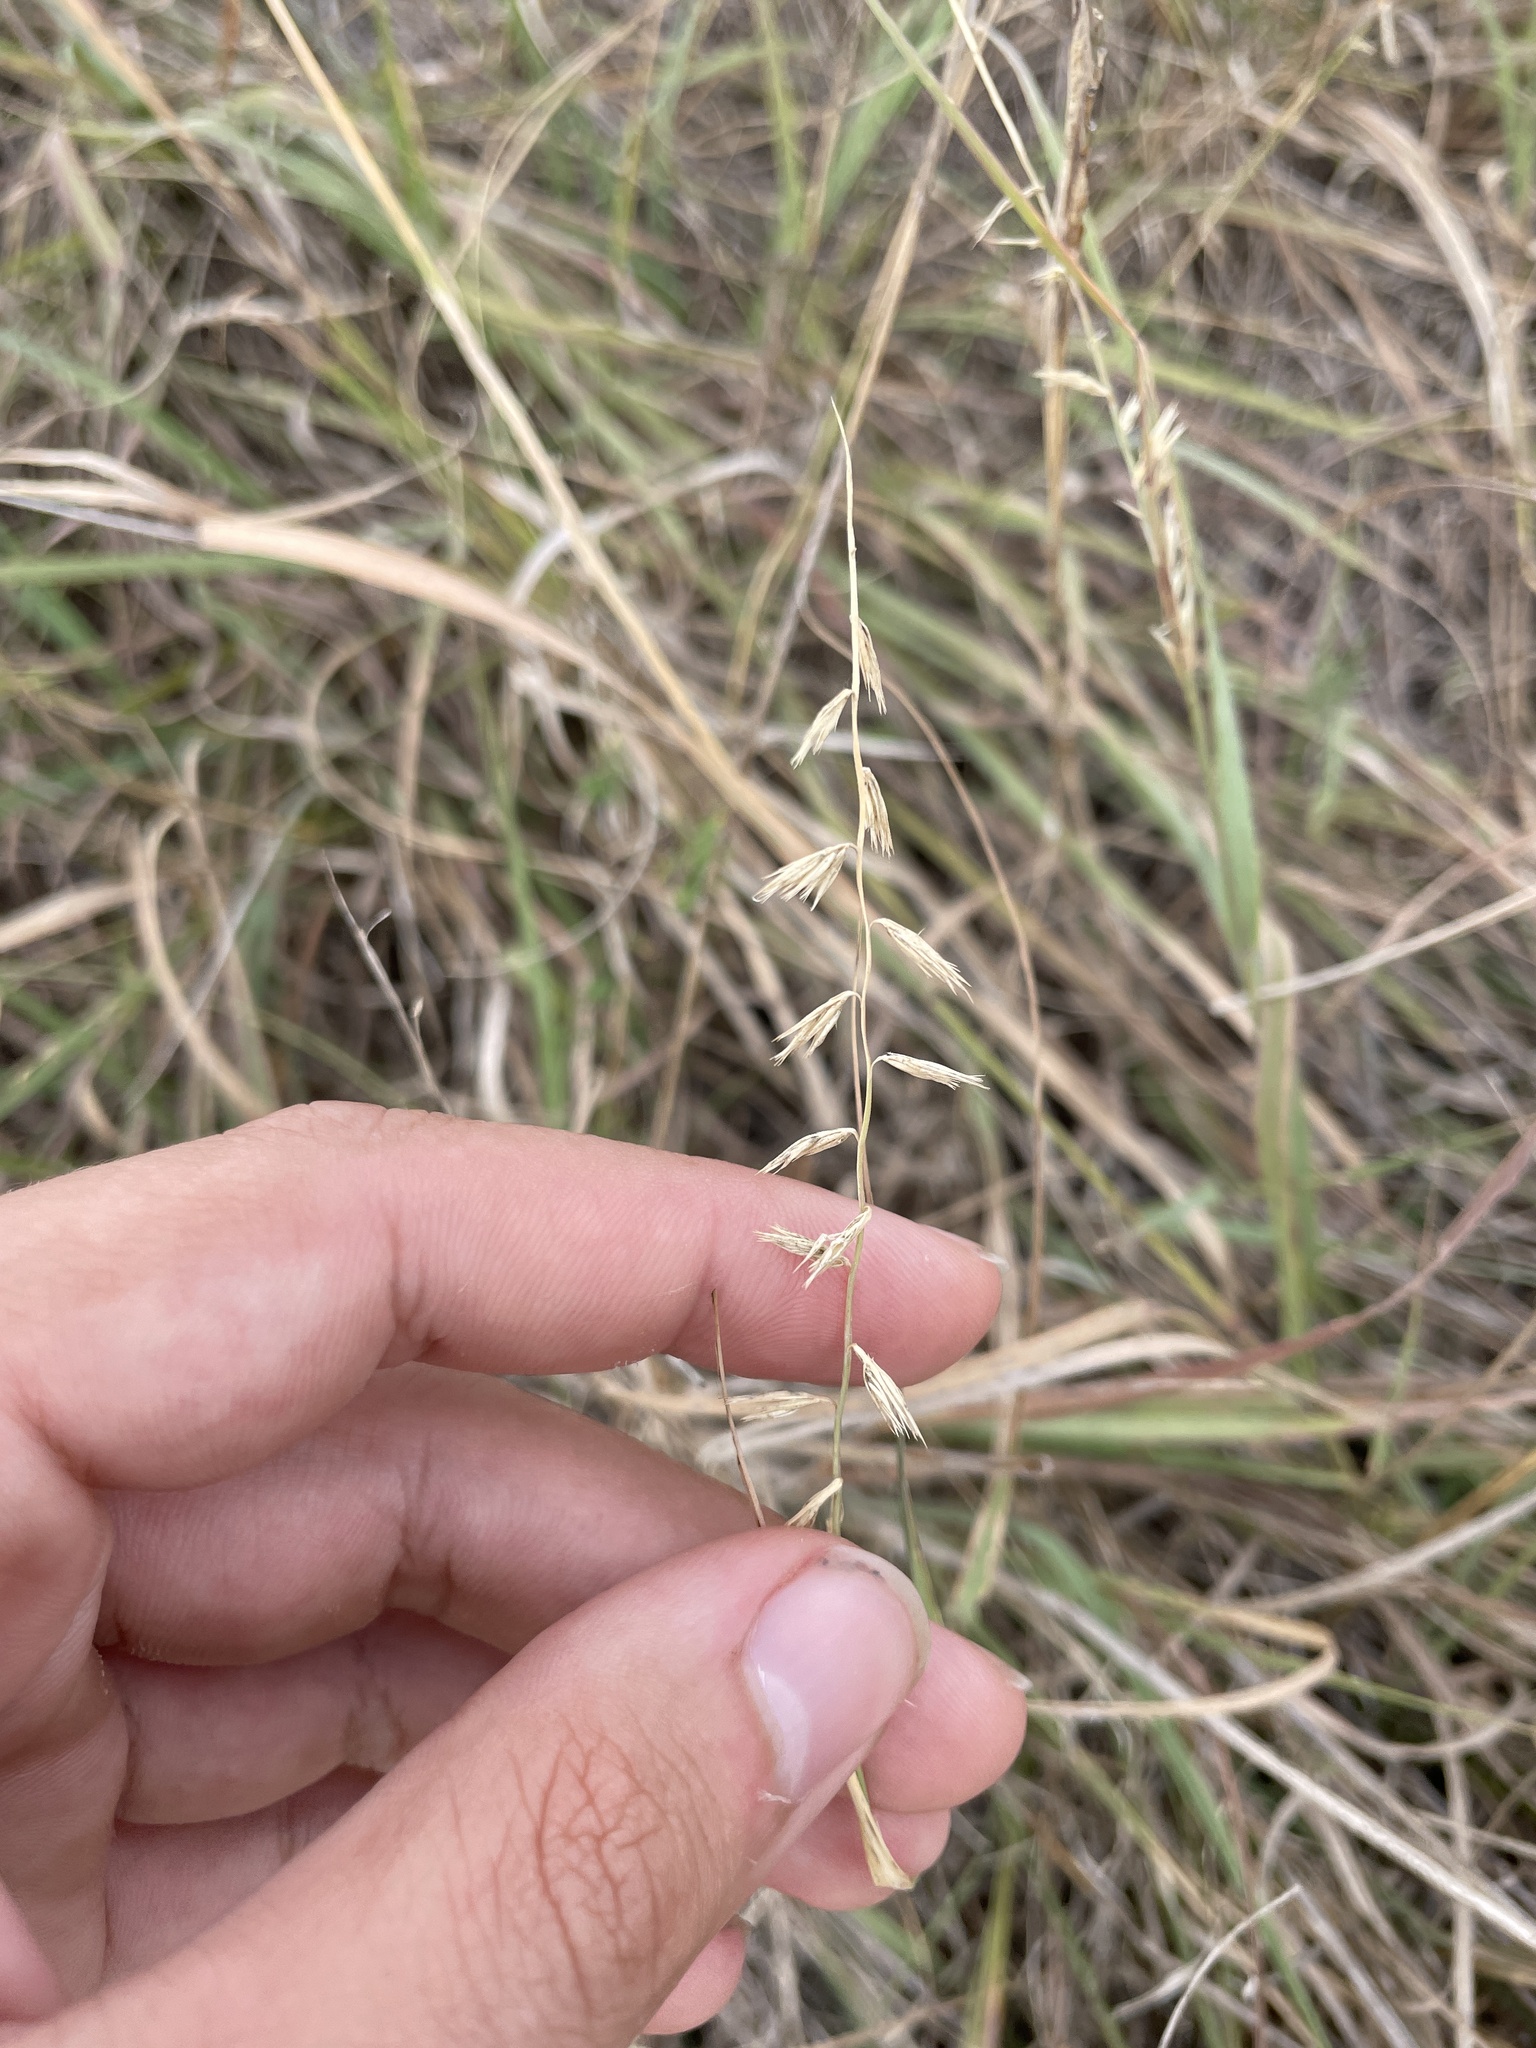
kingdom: Plantae
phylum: Tracheophyta
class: Liliopsida
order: Poales
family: Poaceae
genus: Bouteloua
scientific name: Bouteloua curtipendula
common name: Side-oats grama
